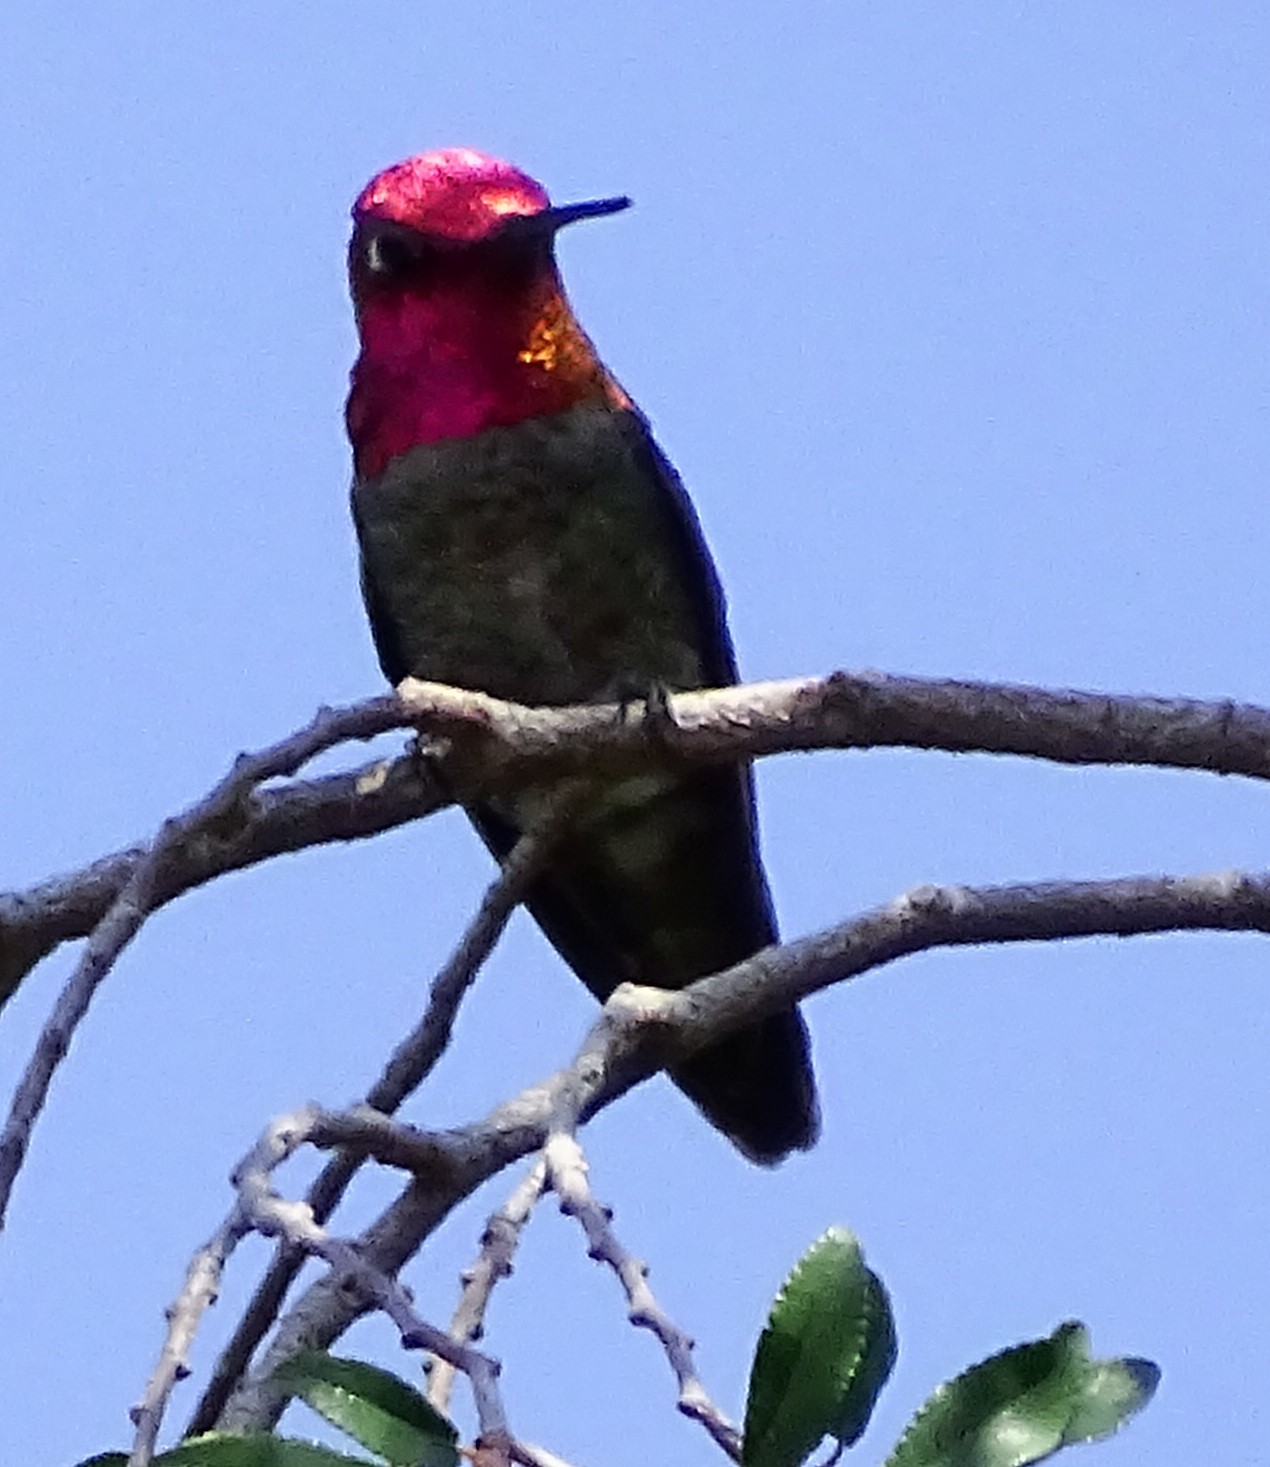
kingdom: Animalia
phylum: Chordata
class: Aves
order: Apodiformes
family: Trochilidae
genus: Calypte
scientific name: Calypte anna
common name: Anna's hummingbird
